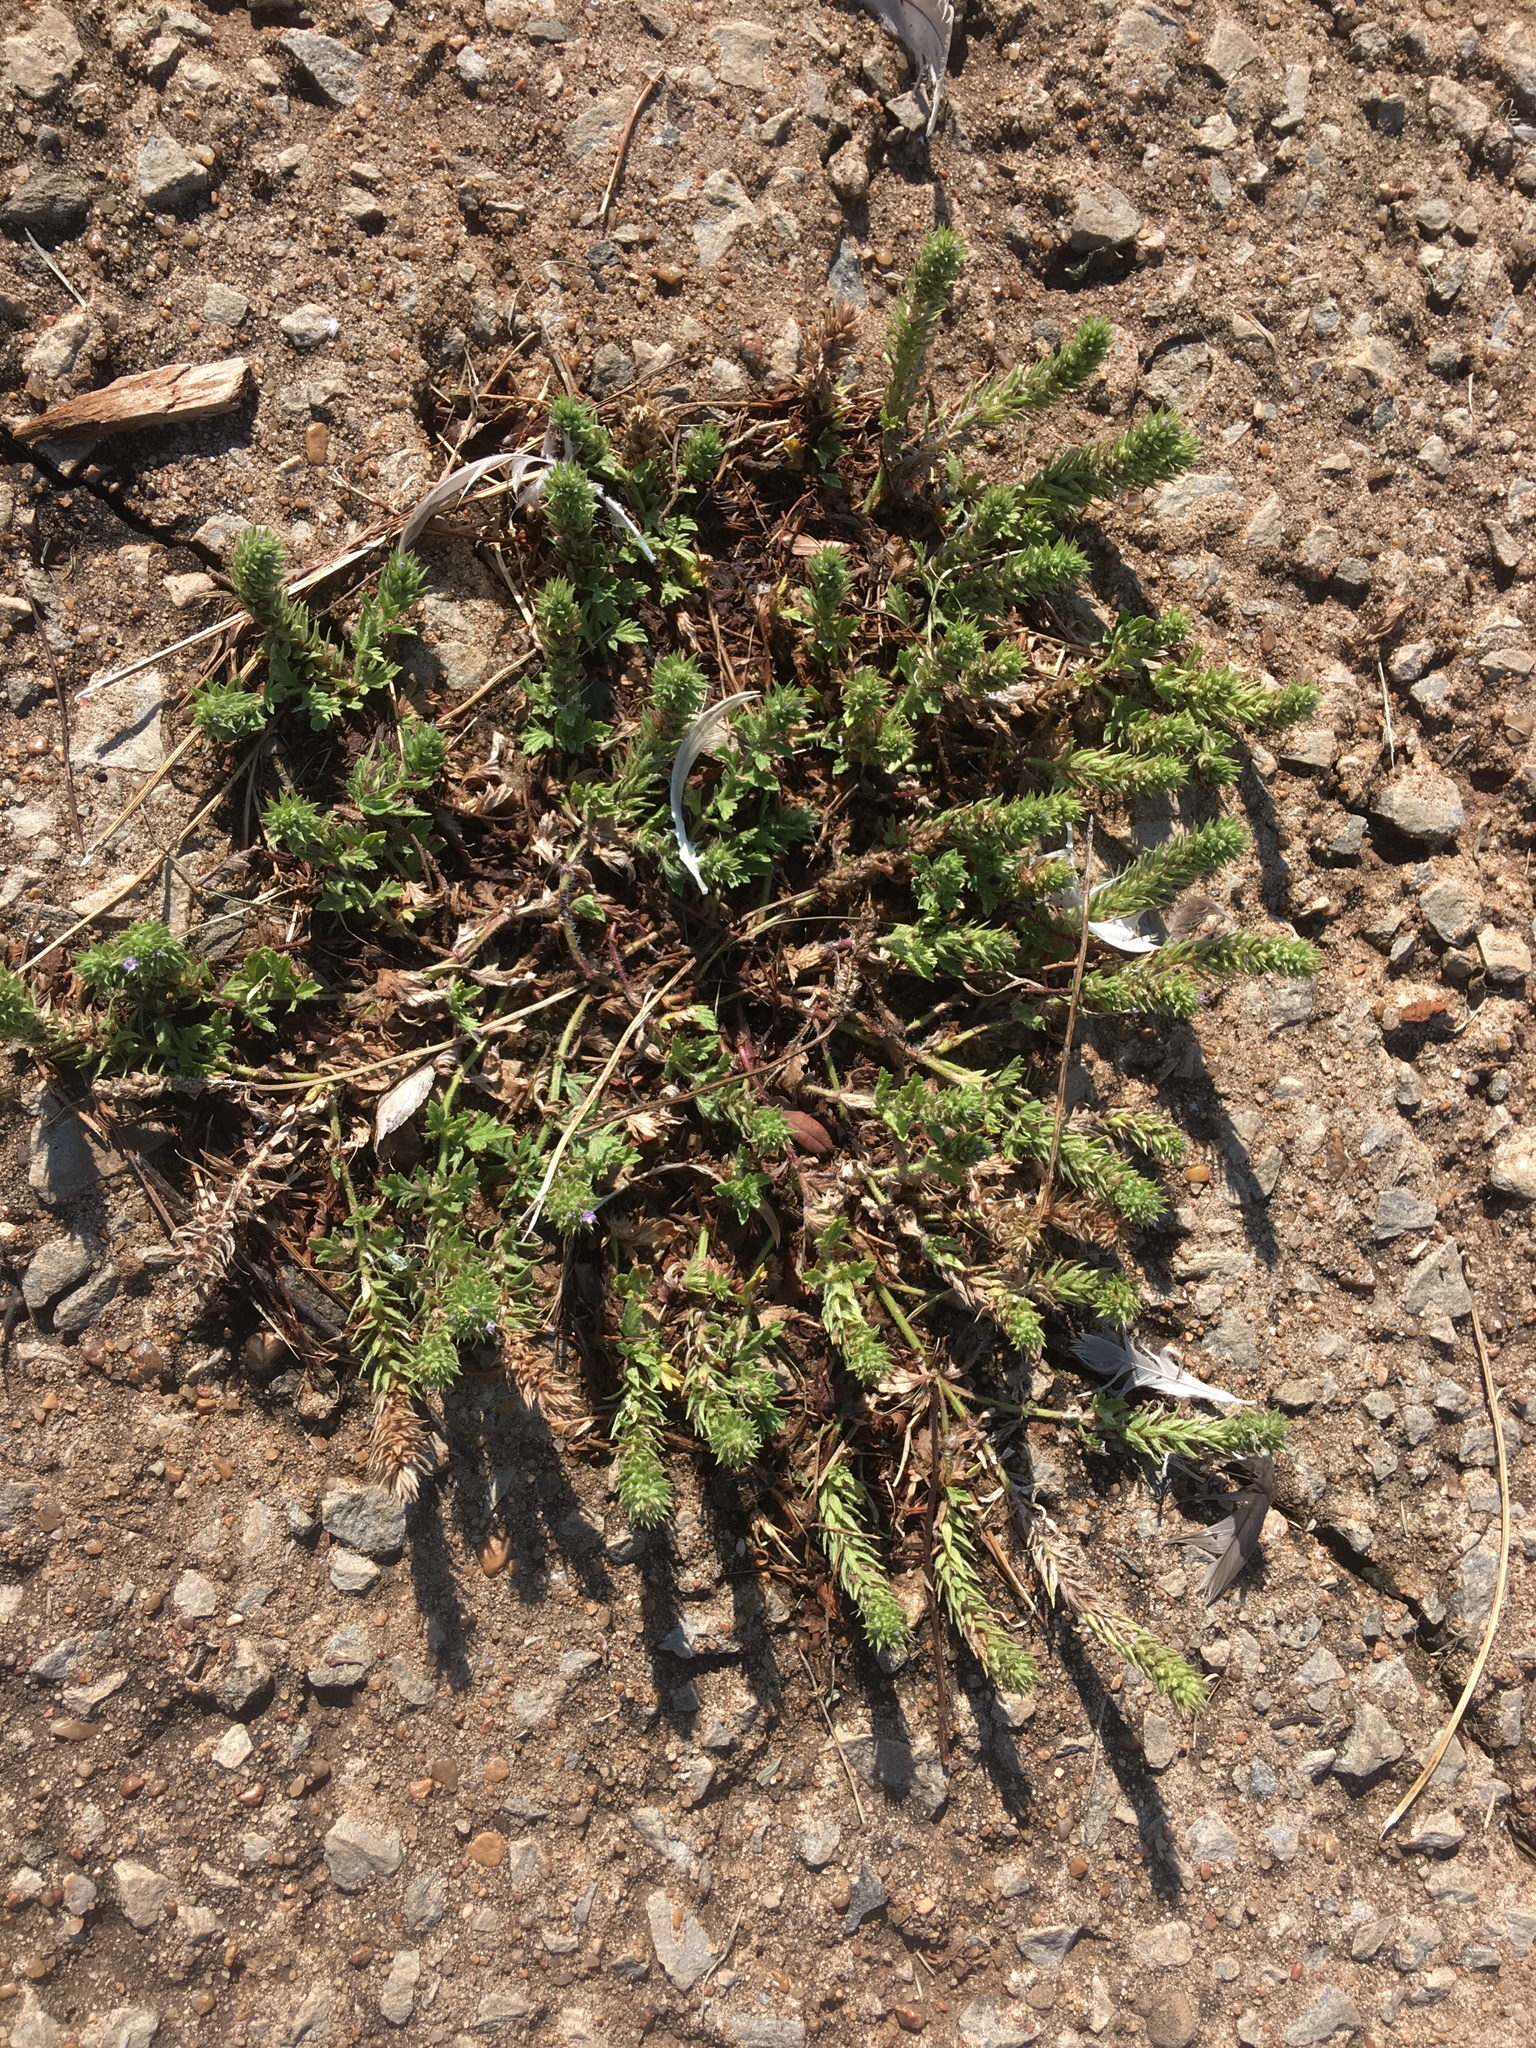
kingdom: Plantae
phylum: Tracheophyta
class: Magnoliopsida
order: Lamiales
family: Verbenaceae
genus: Verbena
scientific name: Verbena bracteata
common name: Bracted vervain
